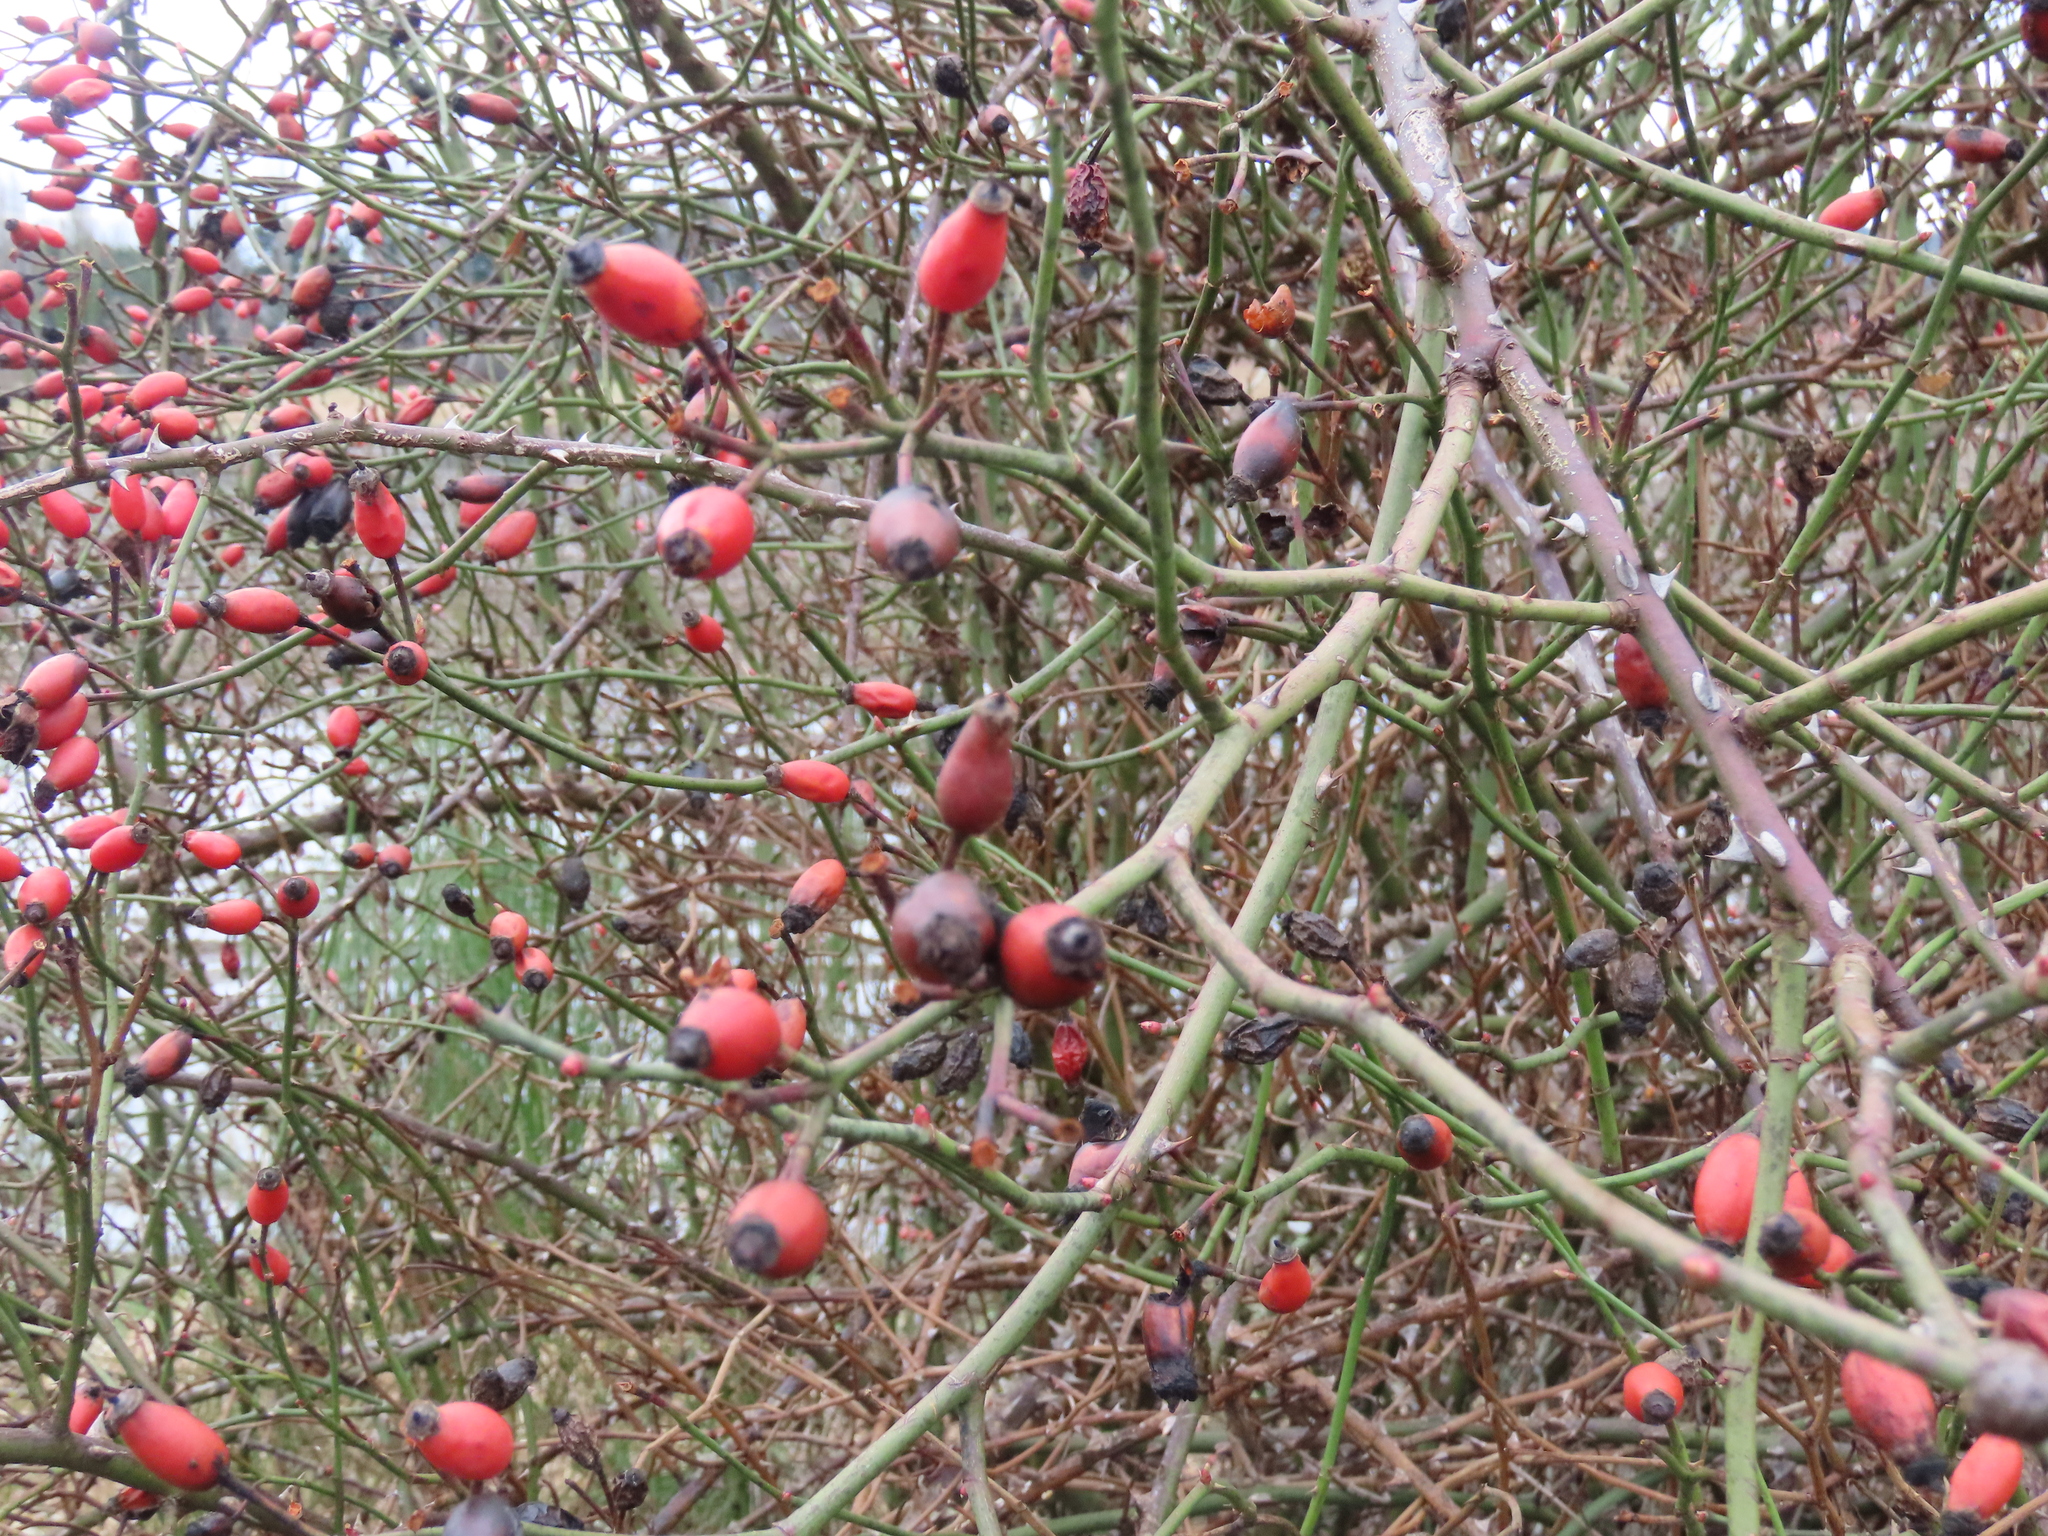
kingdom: Plantae
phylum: Tracheophyta
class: Magnoliopsida
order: Rosales
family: Rosaceae
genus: Rosa
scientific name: Rosa canina
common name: Dog rose
